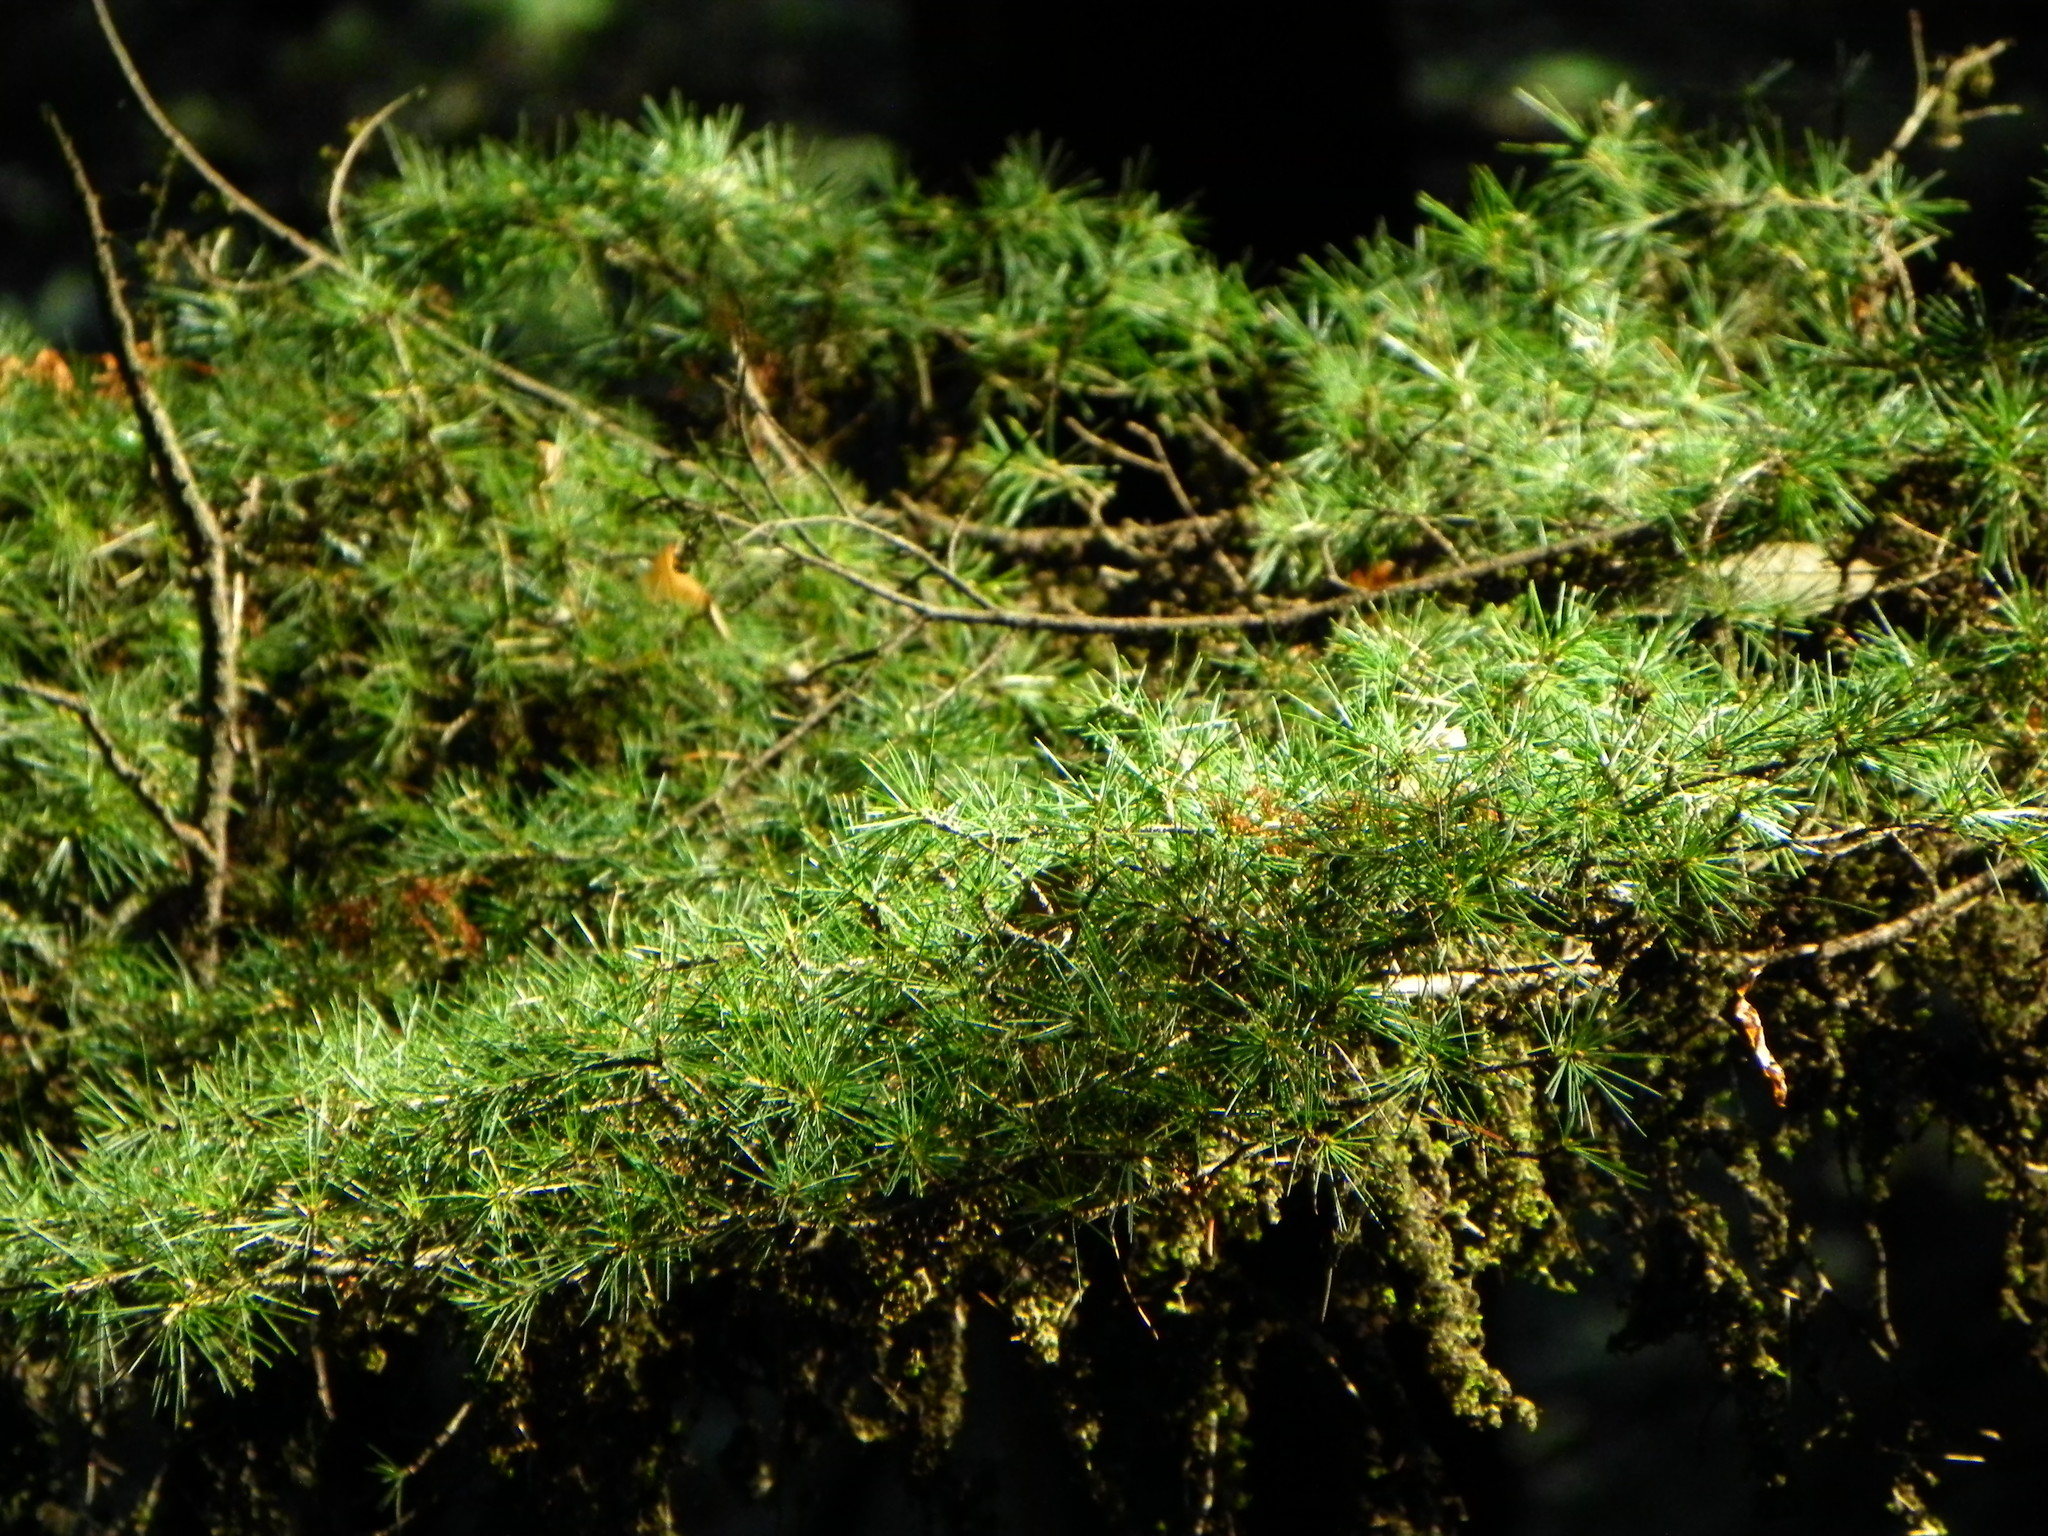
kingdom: Plantae
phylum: Tracheophyta
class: Pinopsida
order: Pinales
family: Pinaceae
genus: Cedrus
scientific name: Cedrus deodara
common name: Deodar
